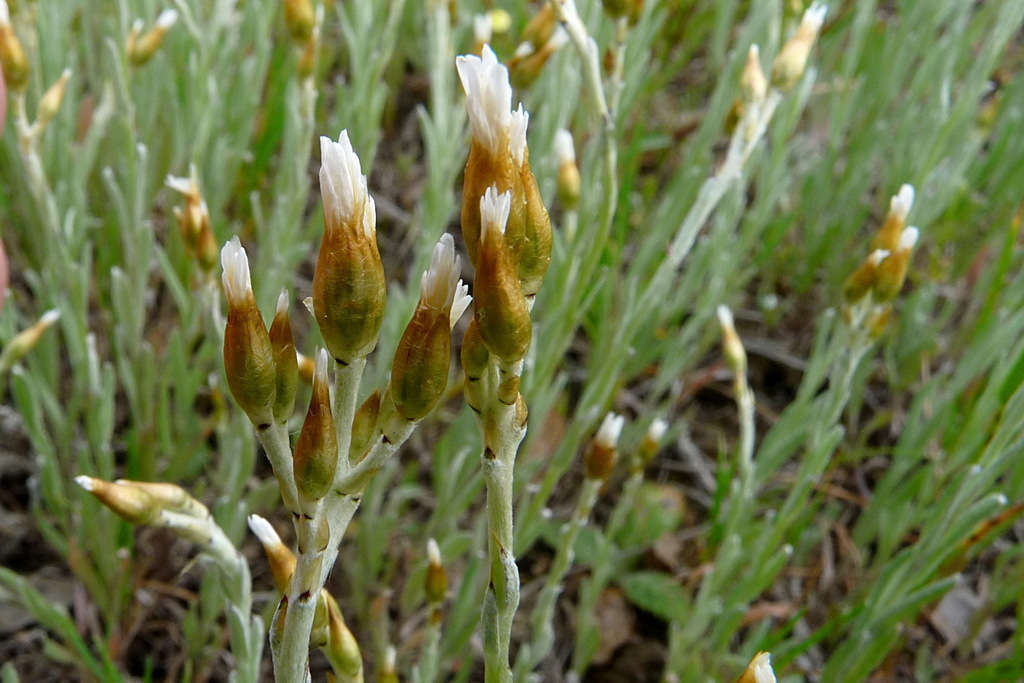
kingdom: Plantae
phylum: Tracheophyta
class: Magnoliopsida
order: Asterales
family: Asteraceae
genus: Rhodanthe
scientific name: Rhodanthe corymbiflora
